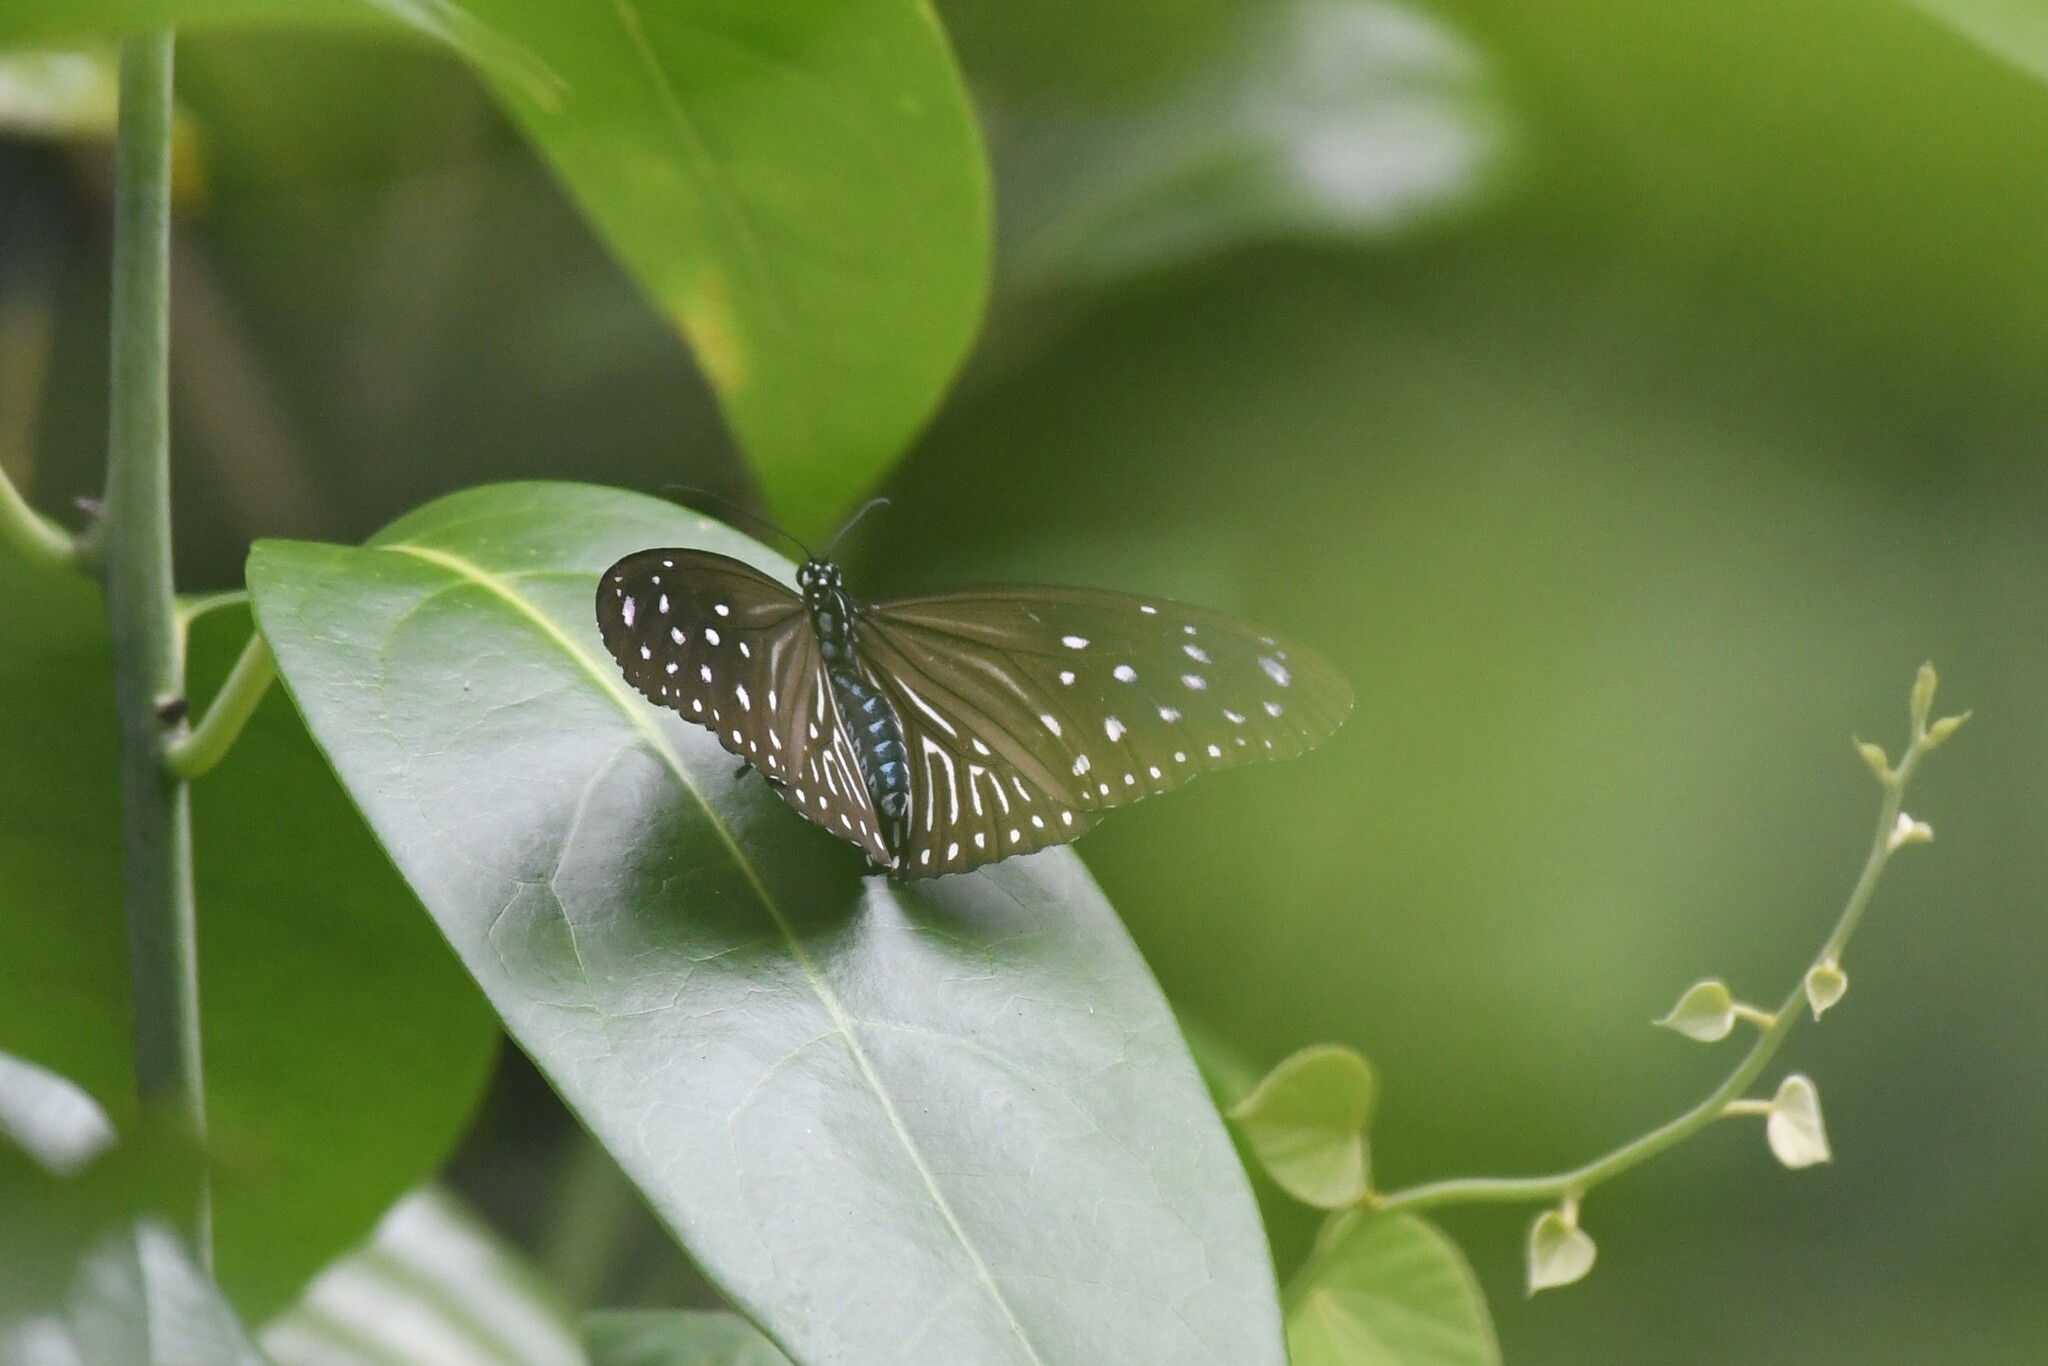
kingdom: Animalia
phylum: Arthropoda
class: Insecta
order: Lepidoptera
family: Nymphalidae
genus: Euploea
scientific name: Euploea mulciber
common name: Striped blue crow butterfly
